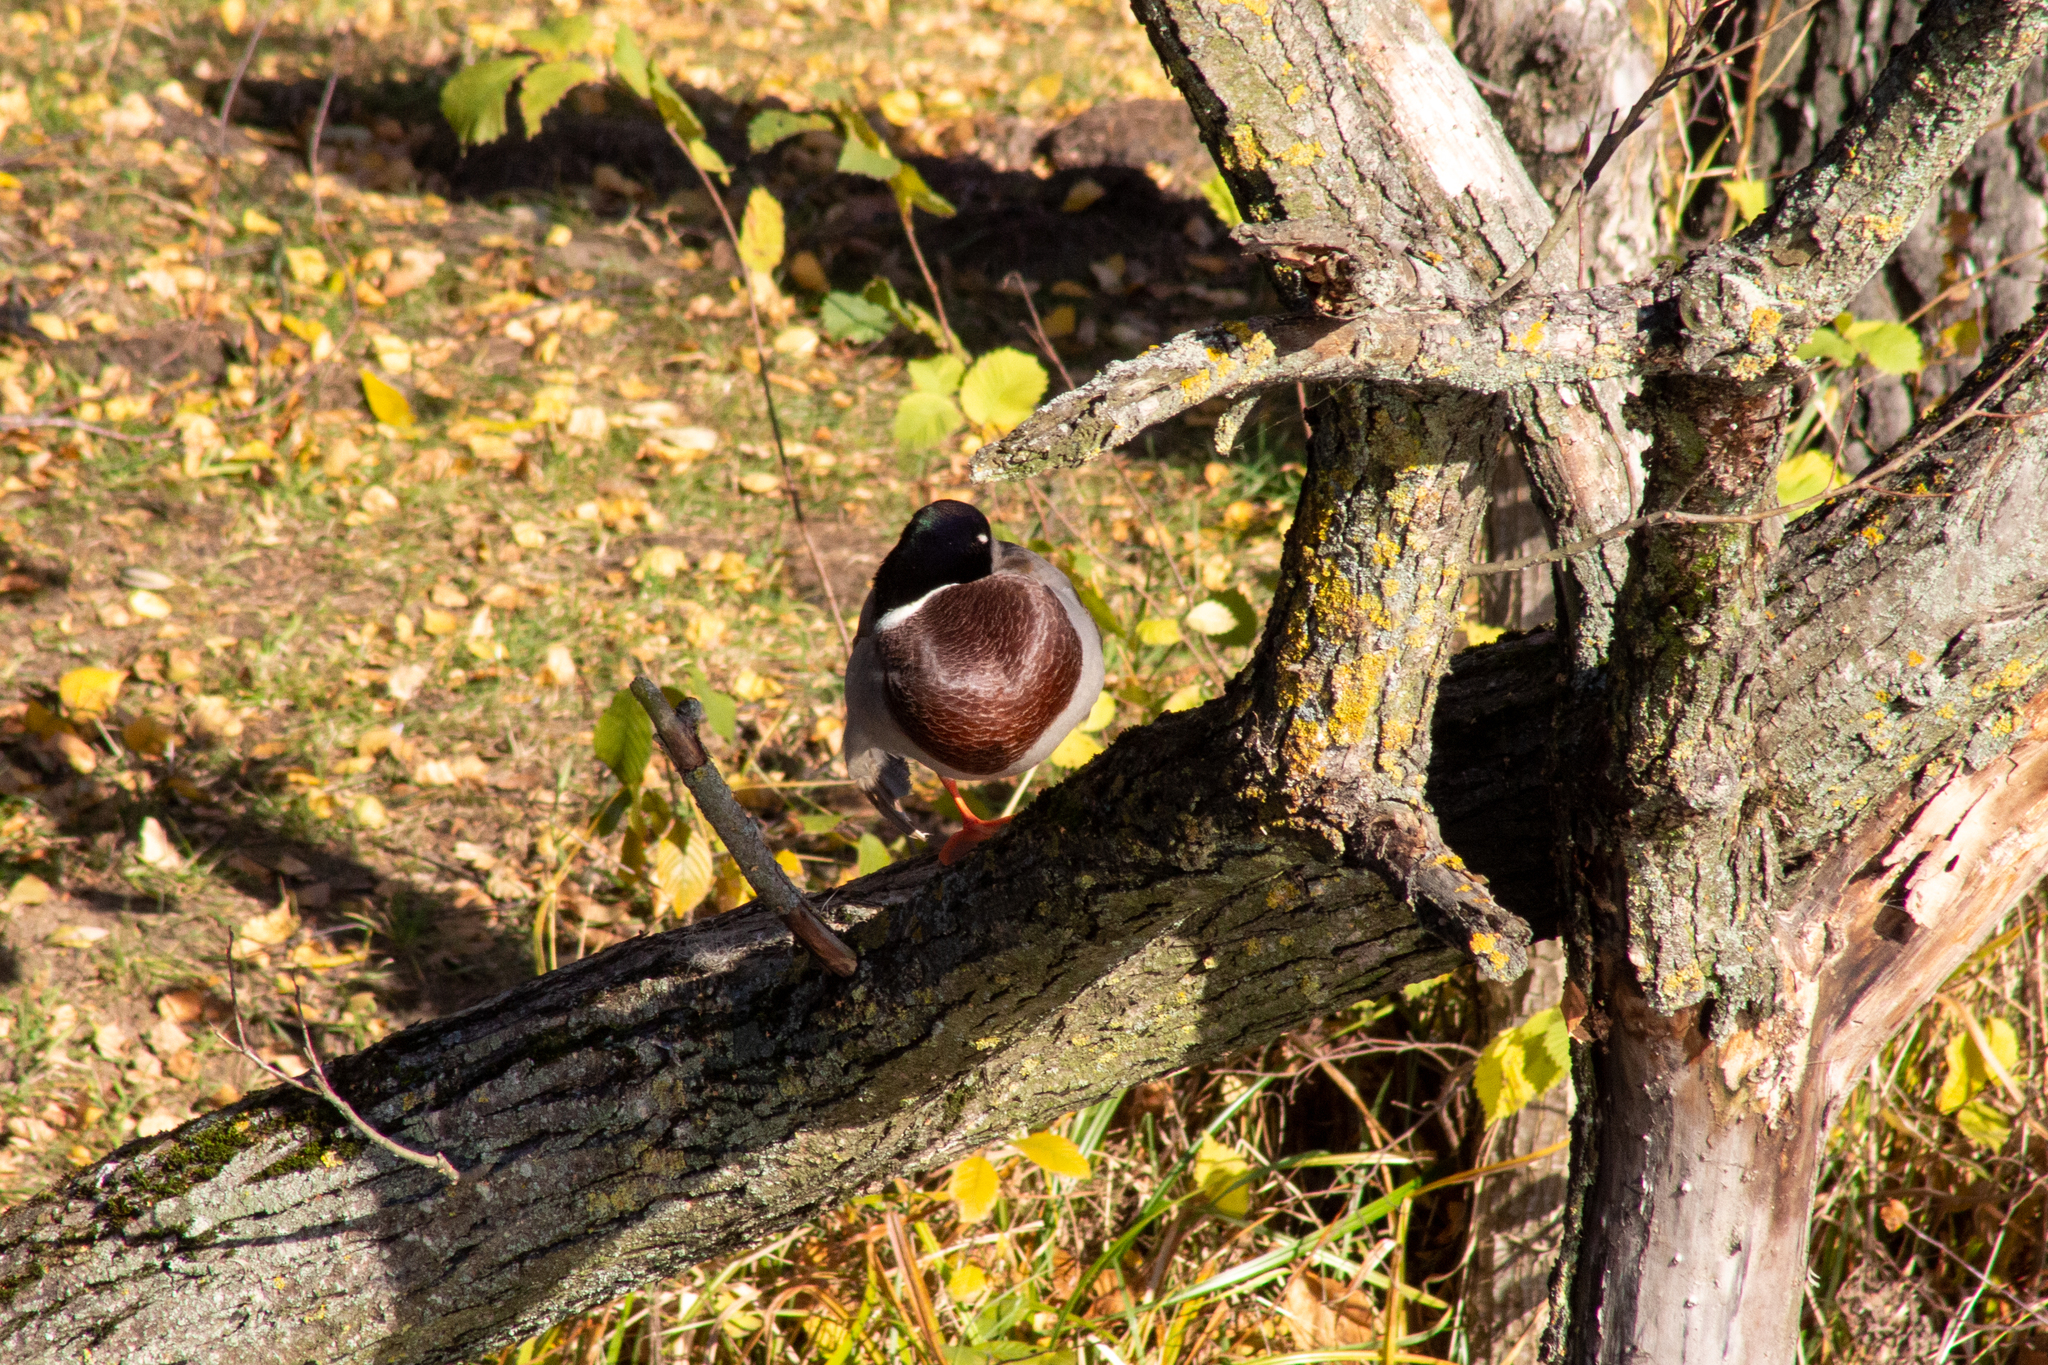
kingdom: Animalia
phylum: Chordata
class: Aves
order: Anseriformes
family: Anatidae
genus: Anas
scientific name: Anas platyrhynchos
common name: Mallard
